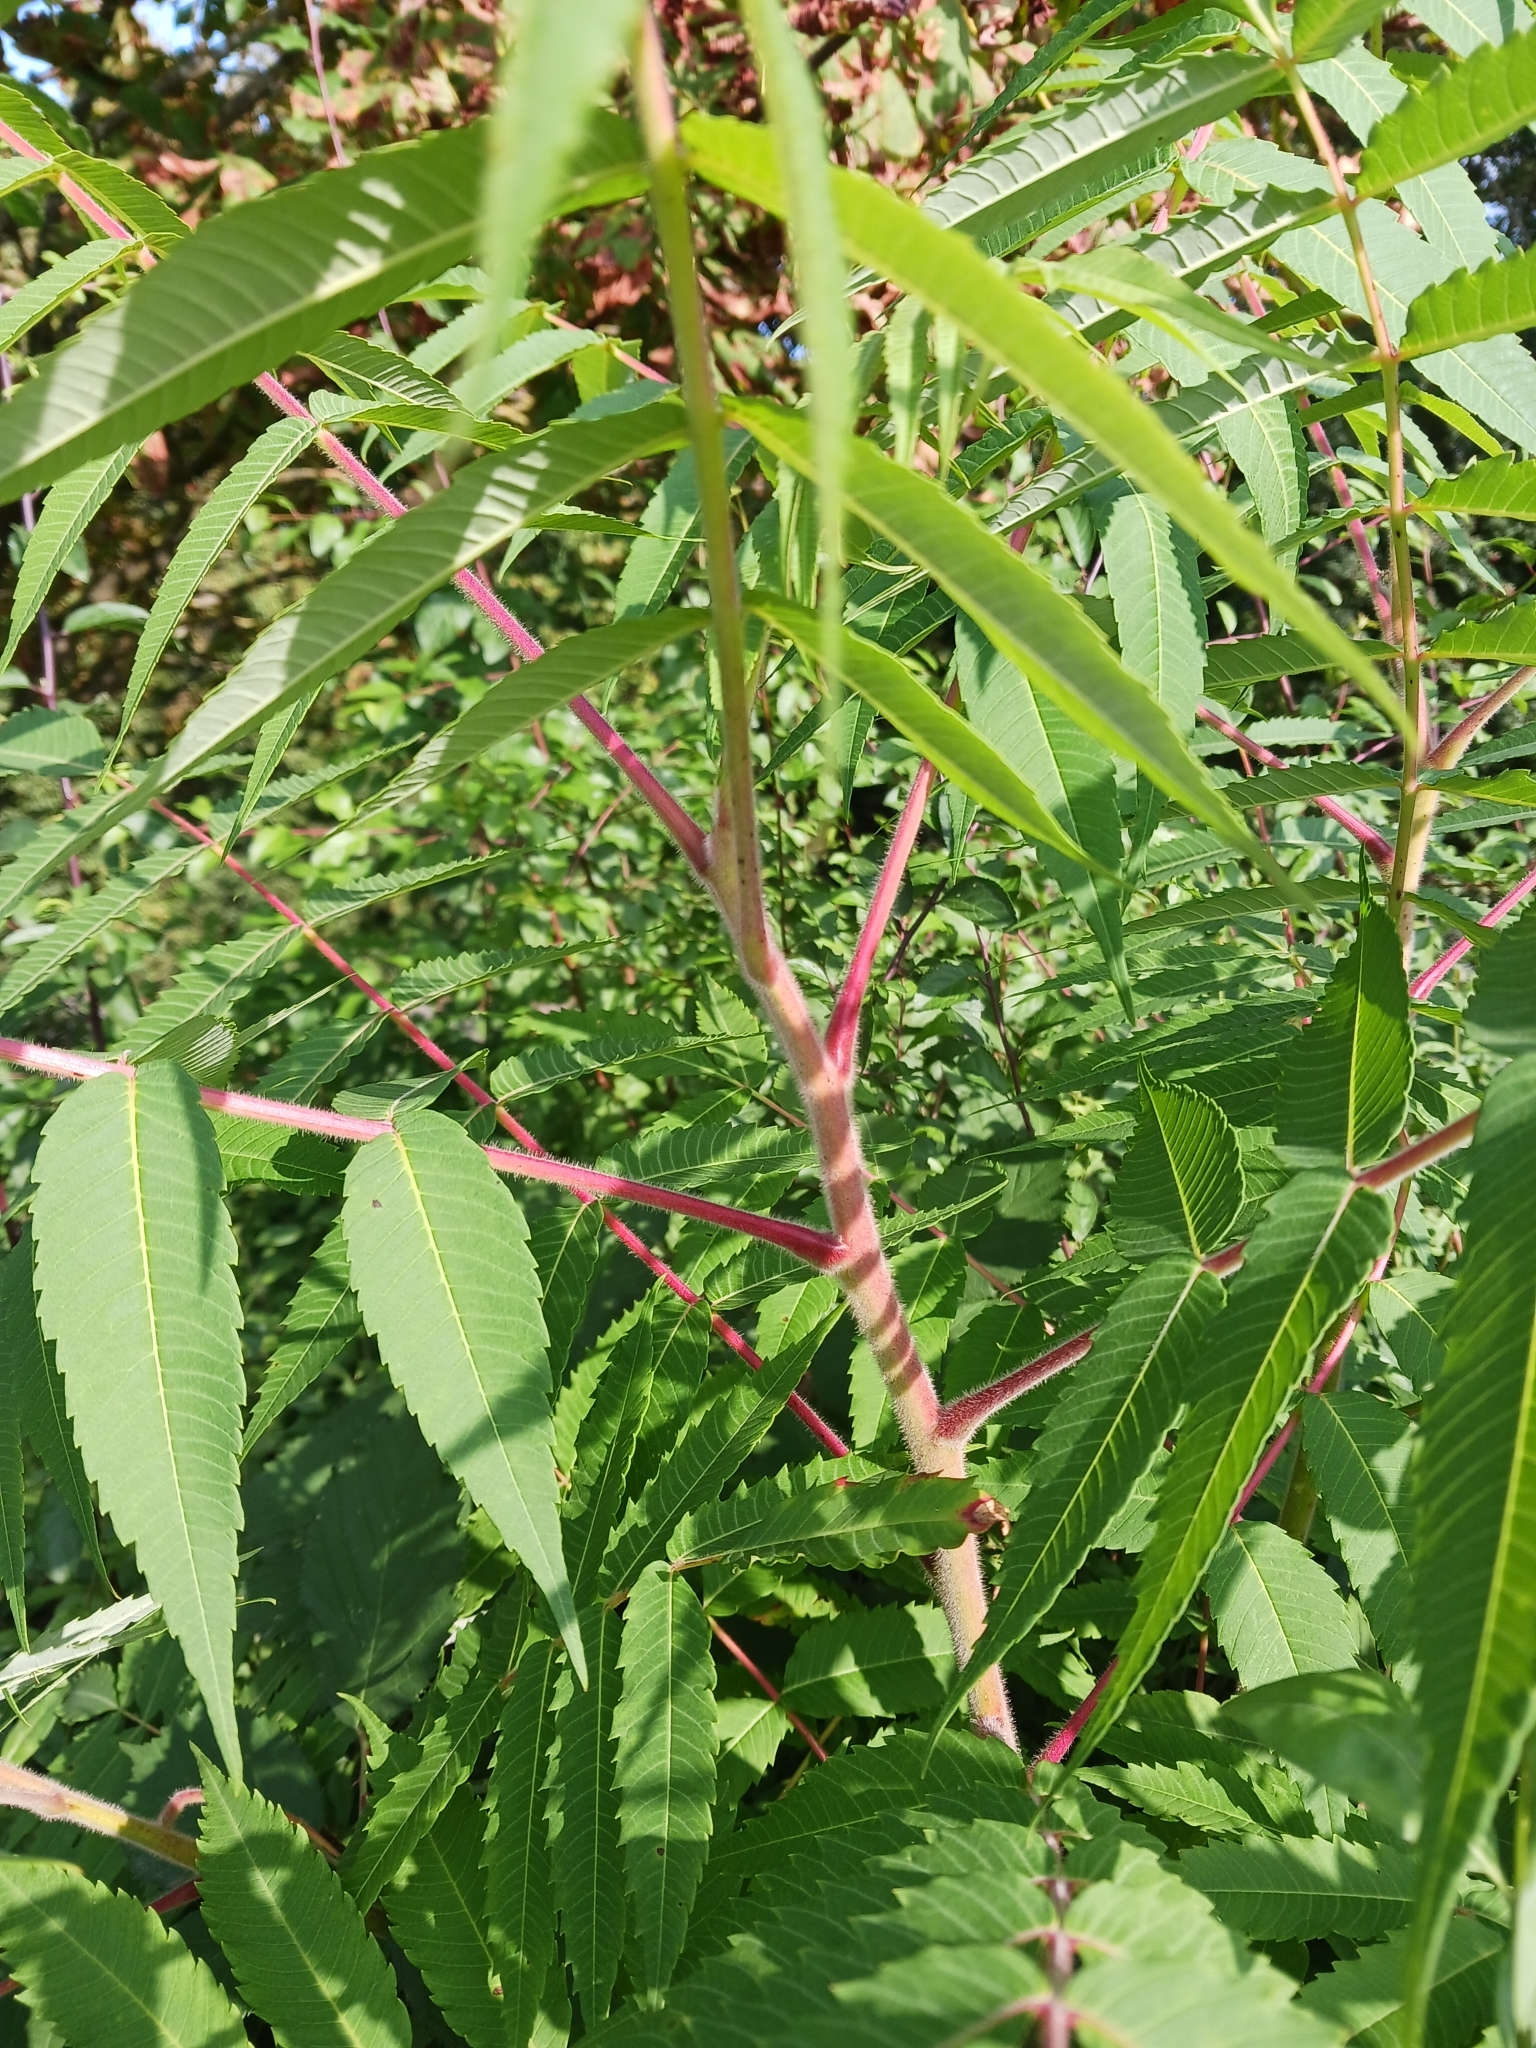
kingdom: Plantae
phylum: Tracheophyta
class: Magnoliopsida
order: Sapindales
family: Anacardiaceae
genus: Rhus
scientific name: Rhus typhina
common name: Staghorn sumac
